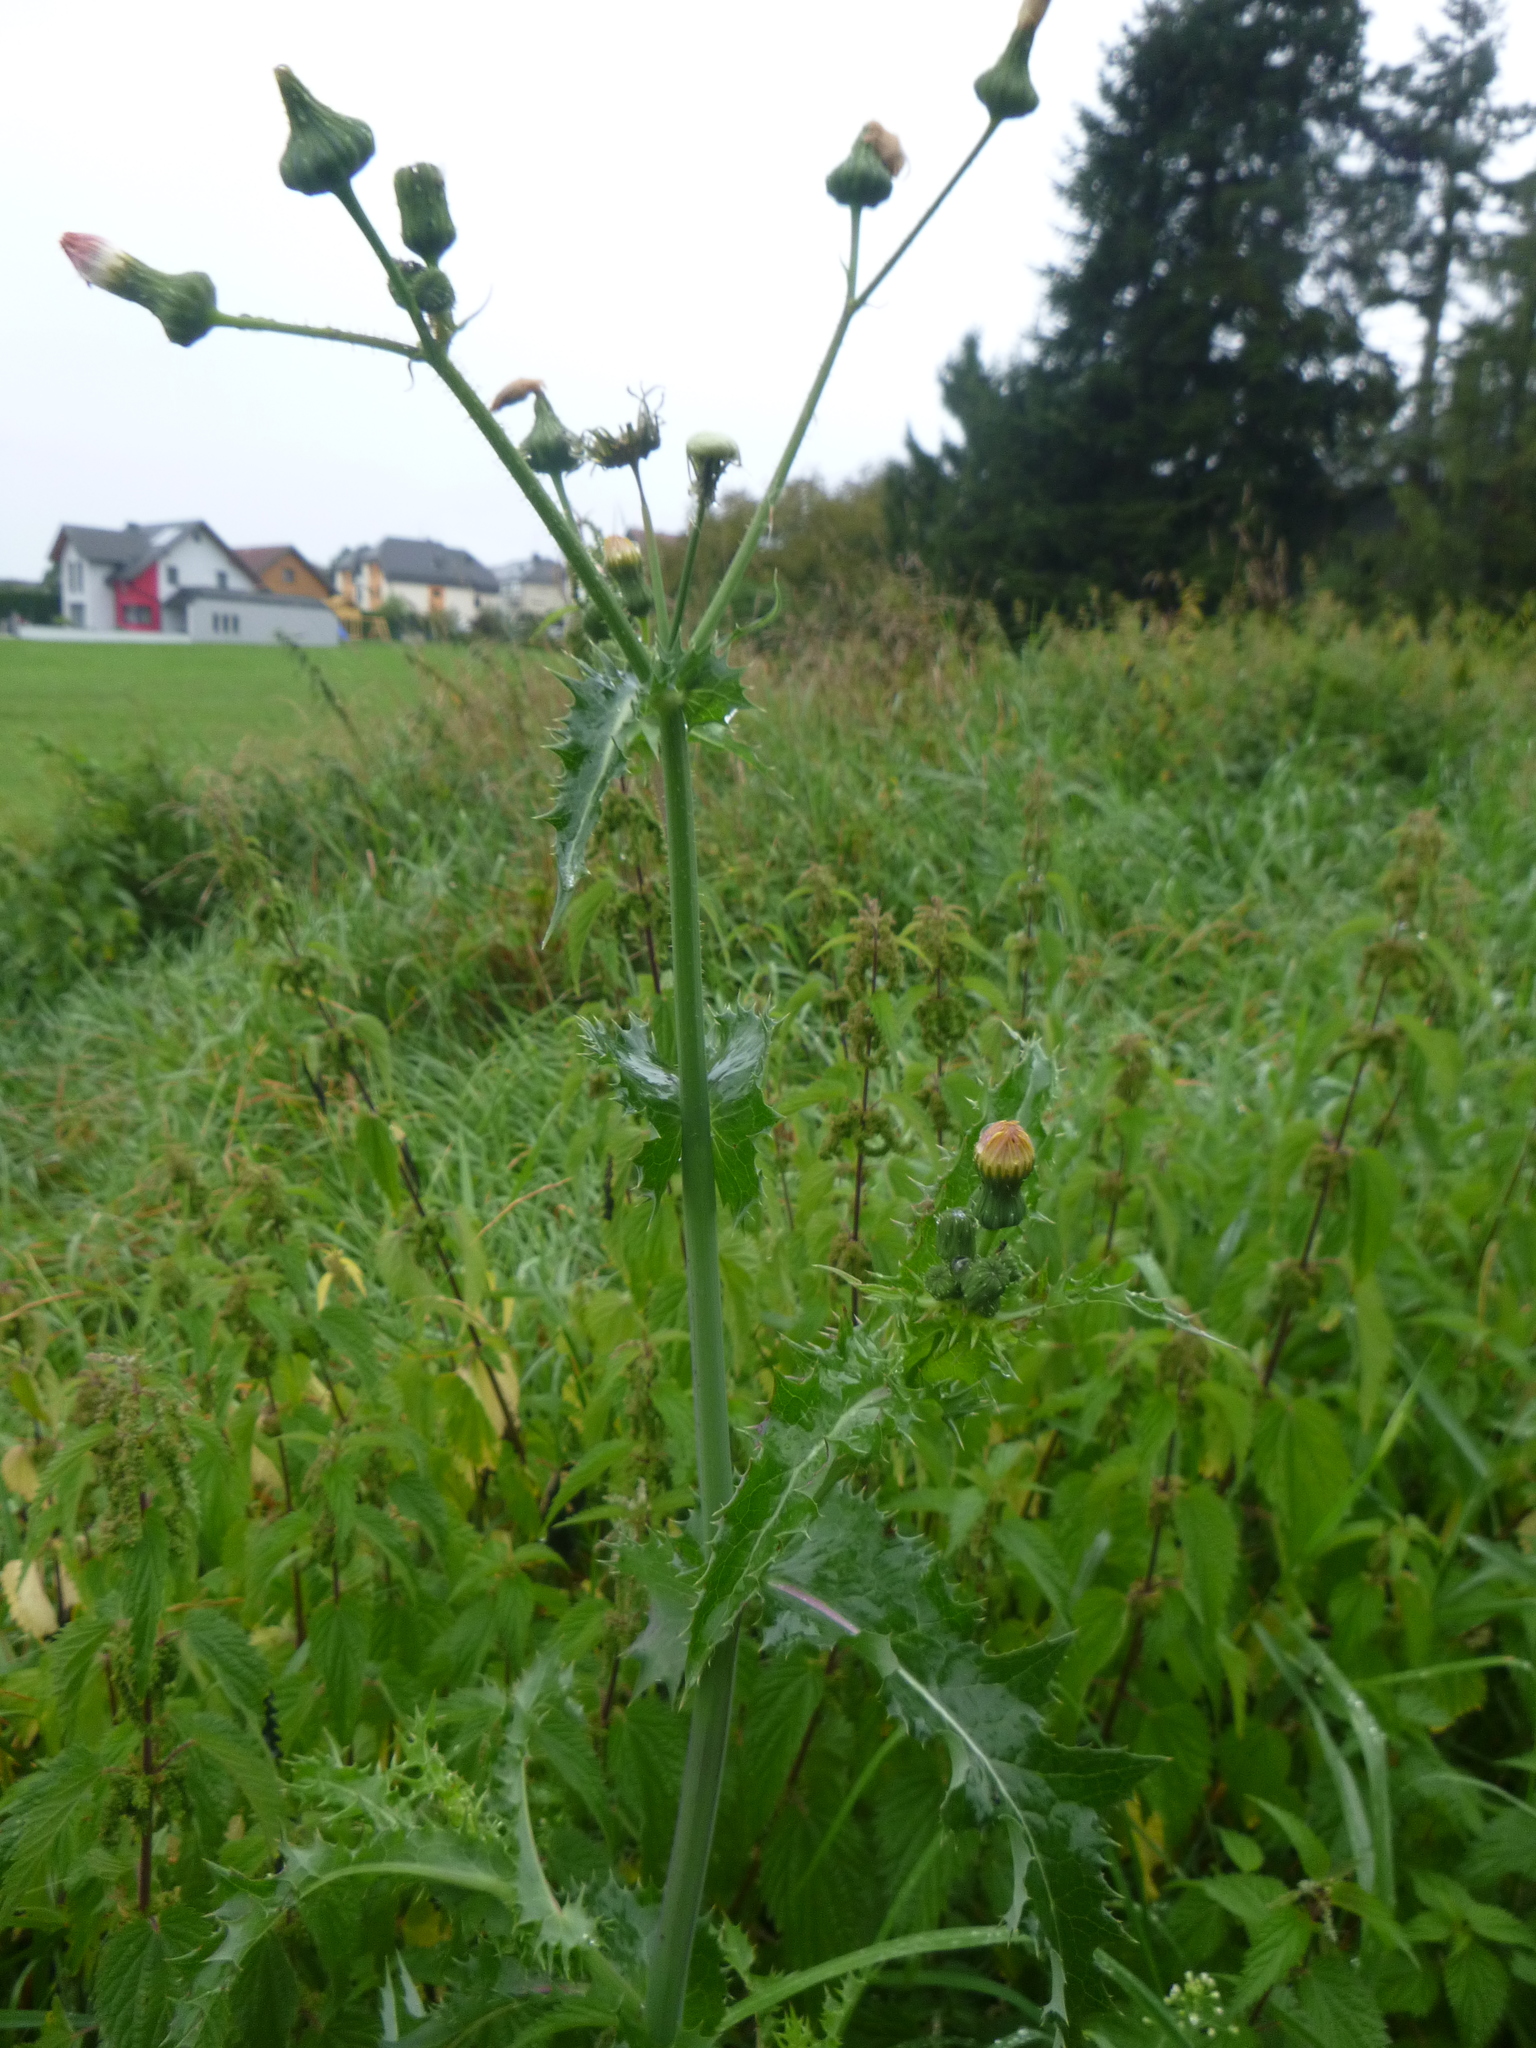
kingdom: Plantae
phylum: Tracheophyta
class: Magnoliopsida
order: Asterales
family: Asteraceae
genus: Sonchus
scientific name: Sonchus asper
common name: Prickly sow-thistle
